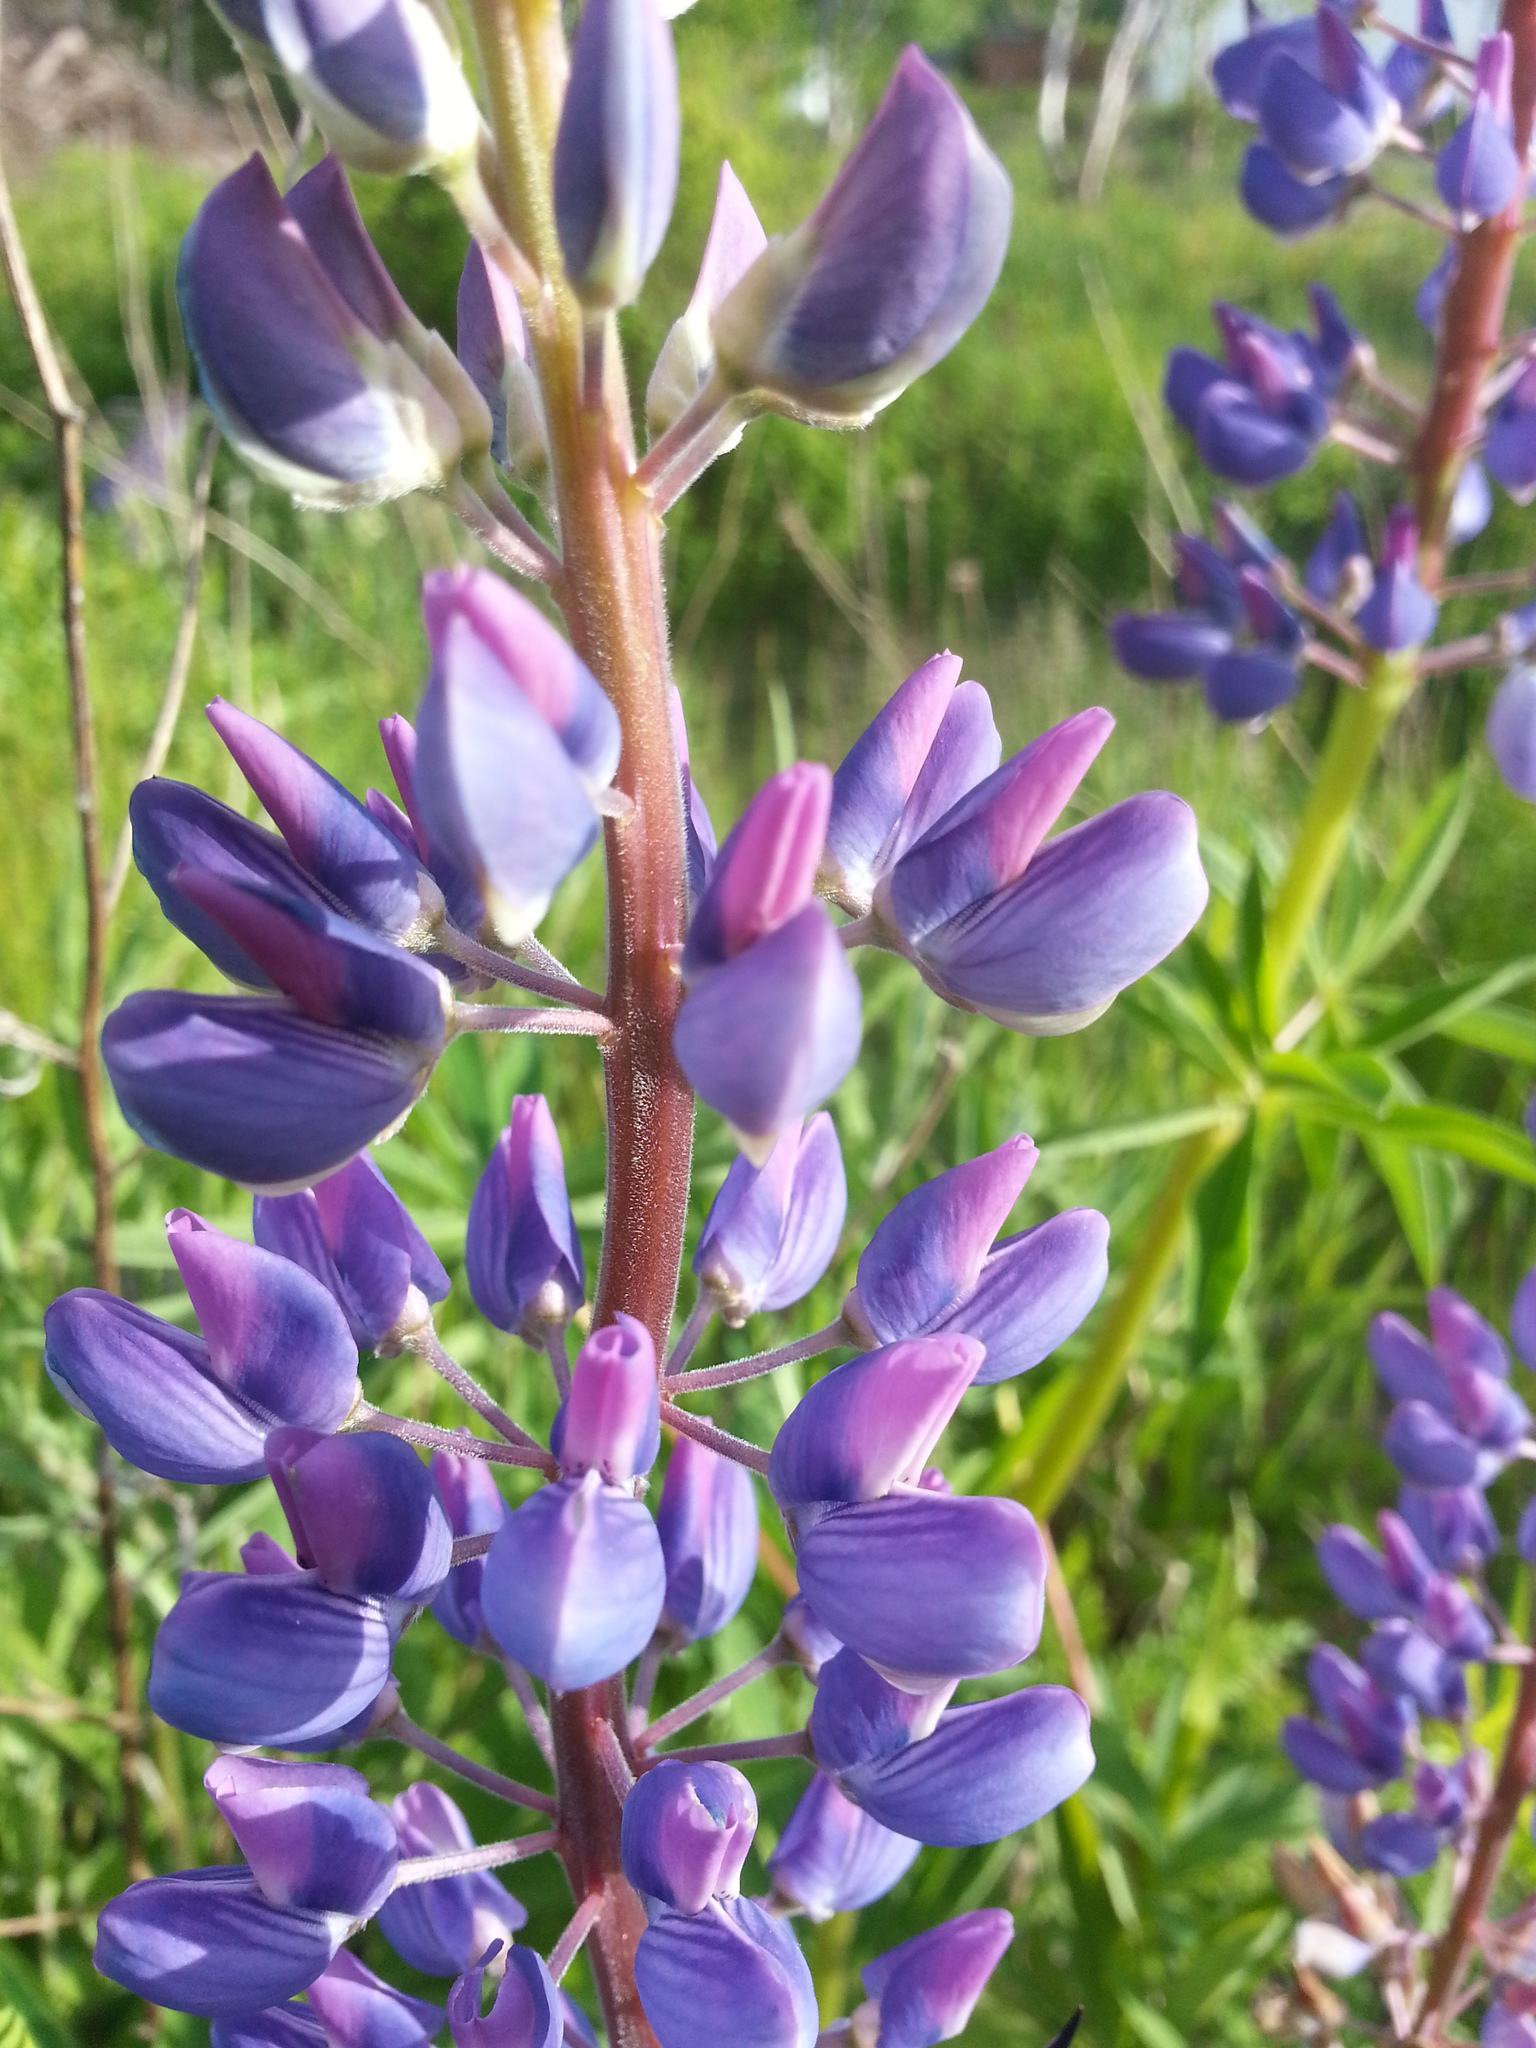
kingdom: Plantae
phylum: Tracheophyta
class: Magnoliopsida
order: Fabales
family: Fabaceae
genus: Lupinus
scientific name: Lupinus polyphyllus
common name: Garden lupin
